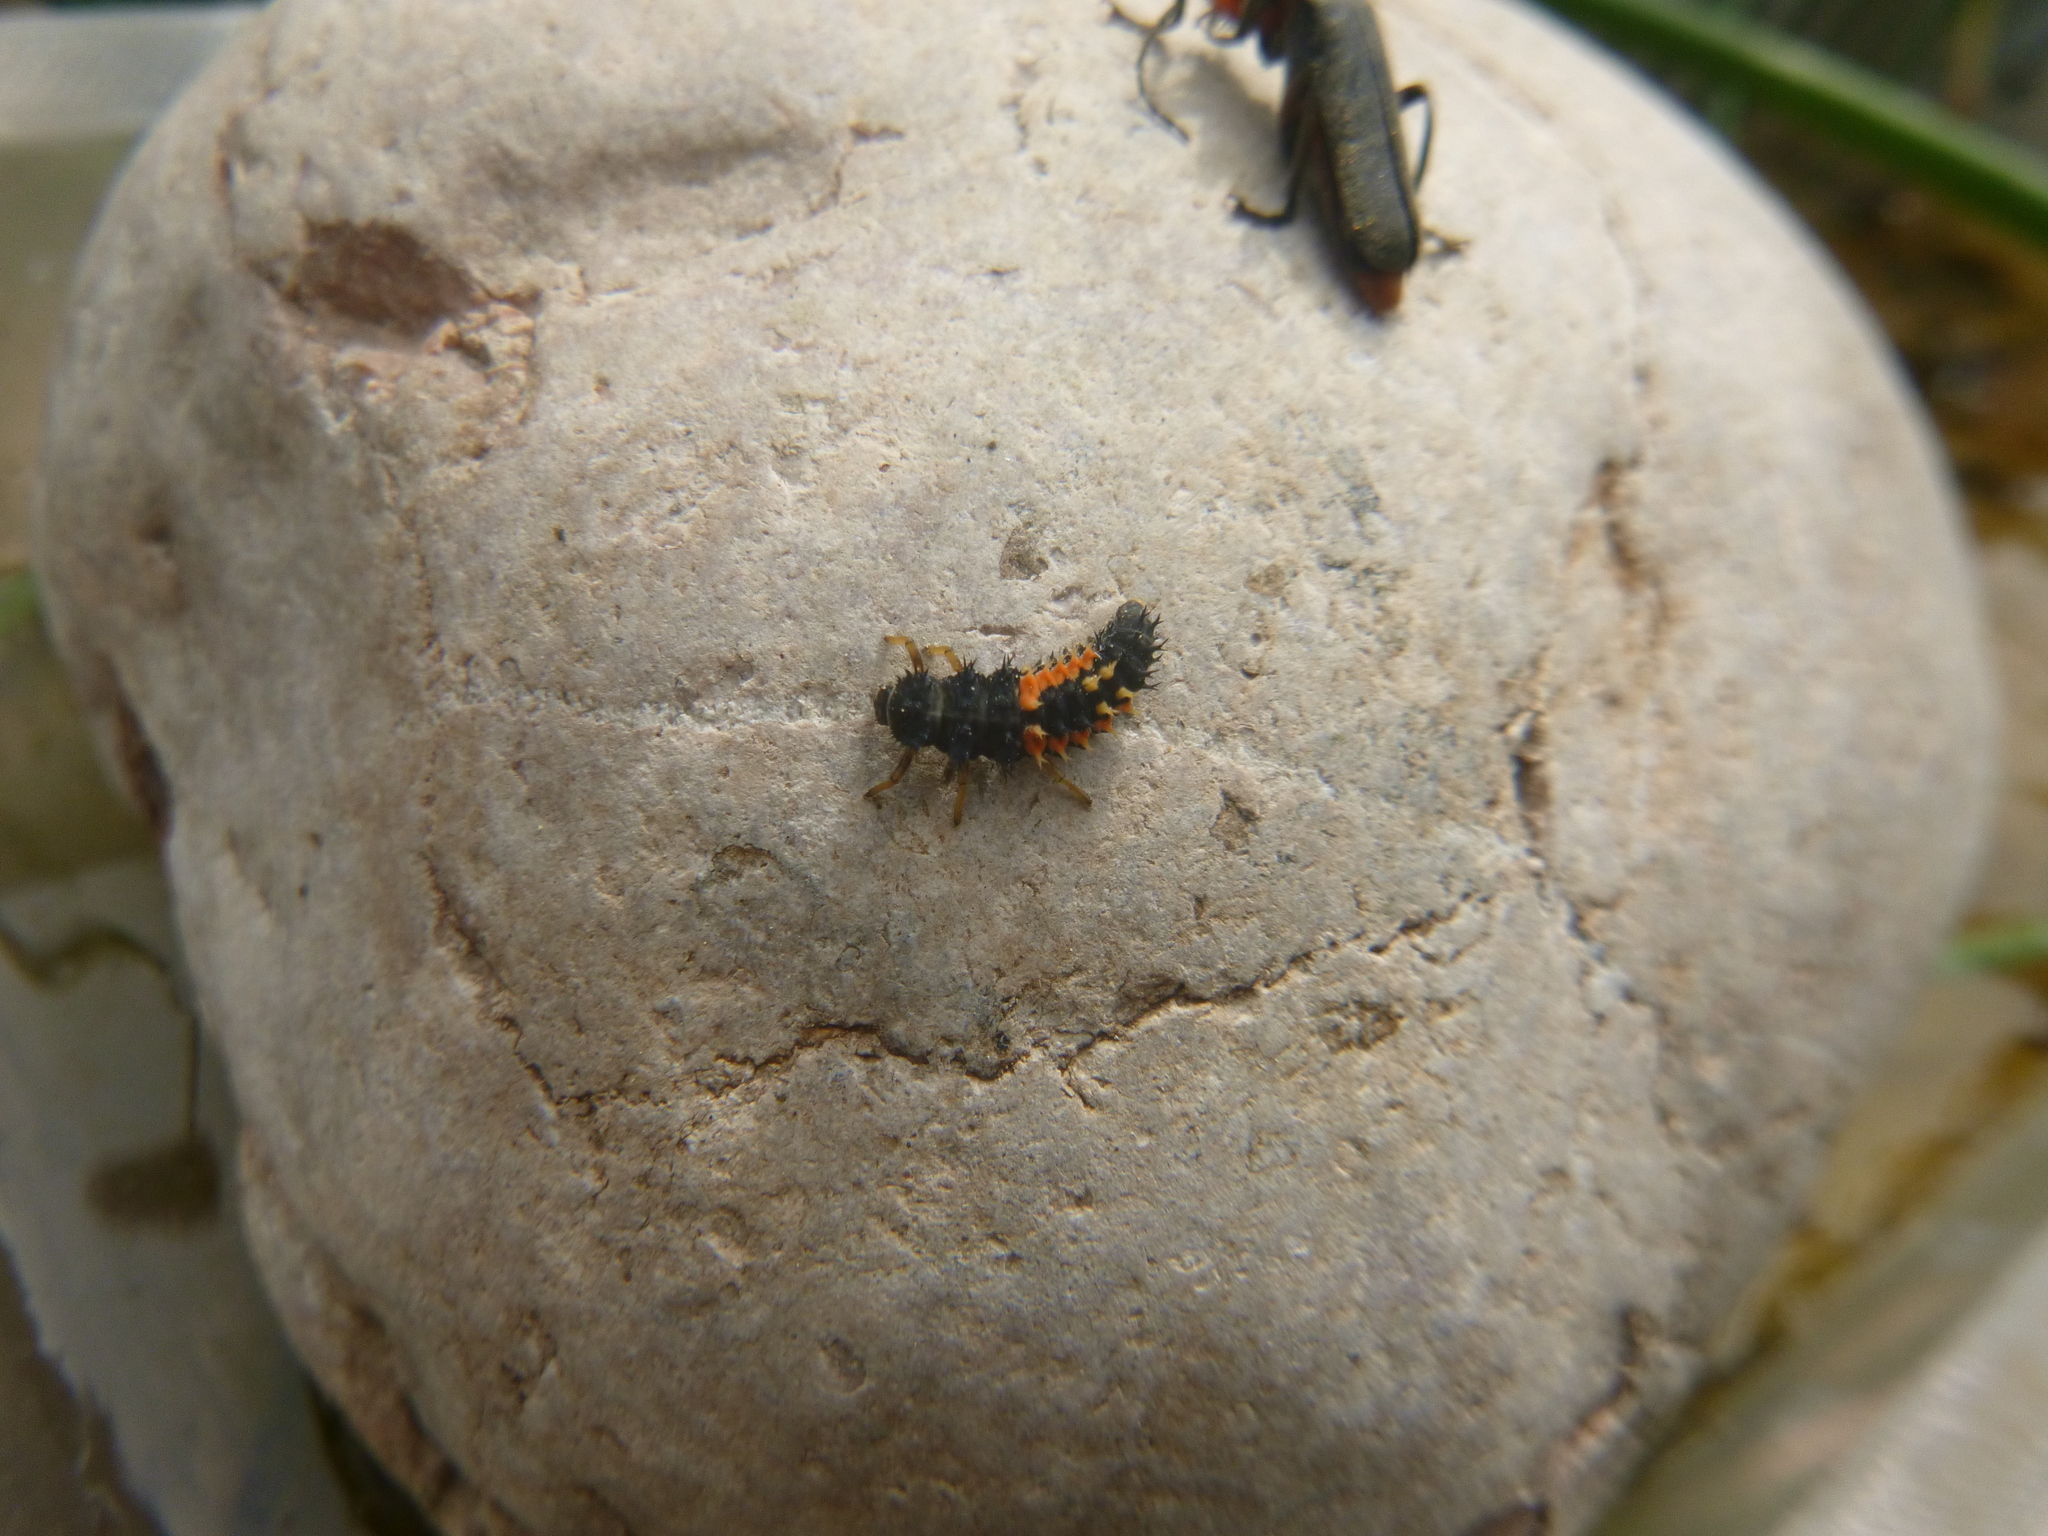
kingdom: Animalia
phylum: Arthropoda
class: Insecta
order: Coleoptera
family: Coccinellidae
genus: Harmonia
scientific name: Harmonia axyridis
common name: Harlequin ladybird
